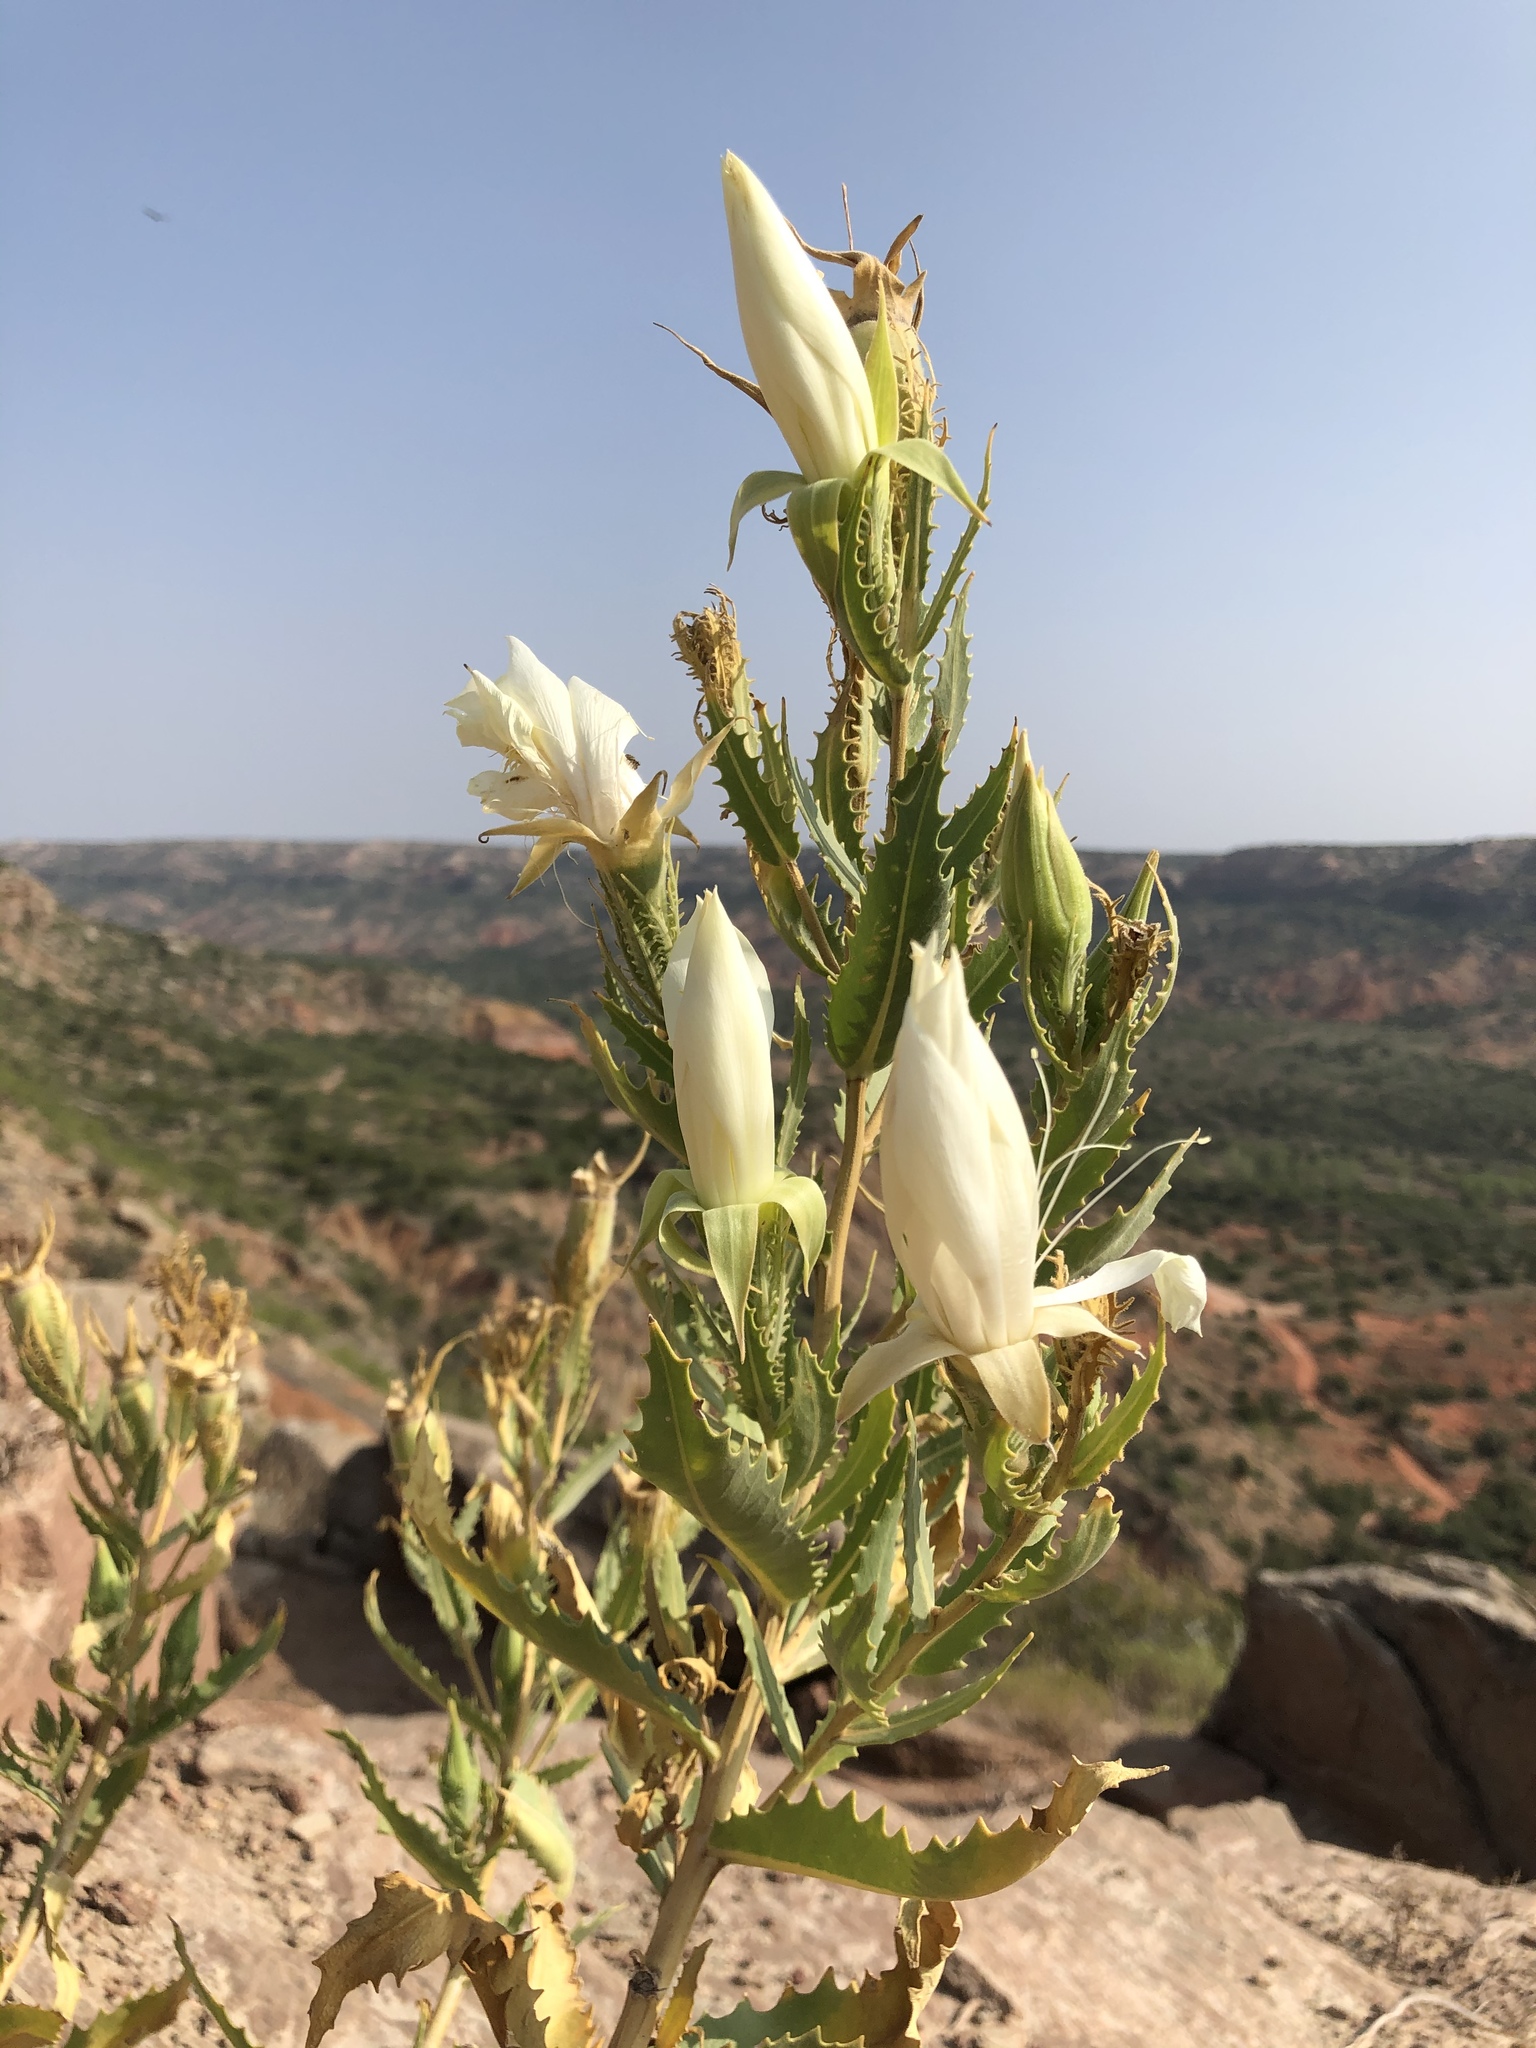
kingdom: Plantae
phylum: Tracheophyta
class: Magnoliopsida
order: Cornales
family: Loasaceae
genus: Mentzelia
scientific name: Mentzelia nuda
